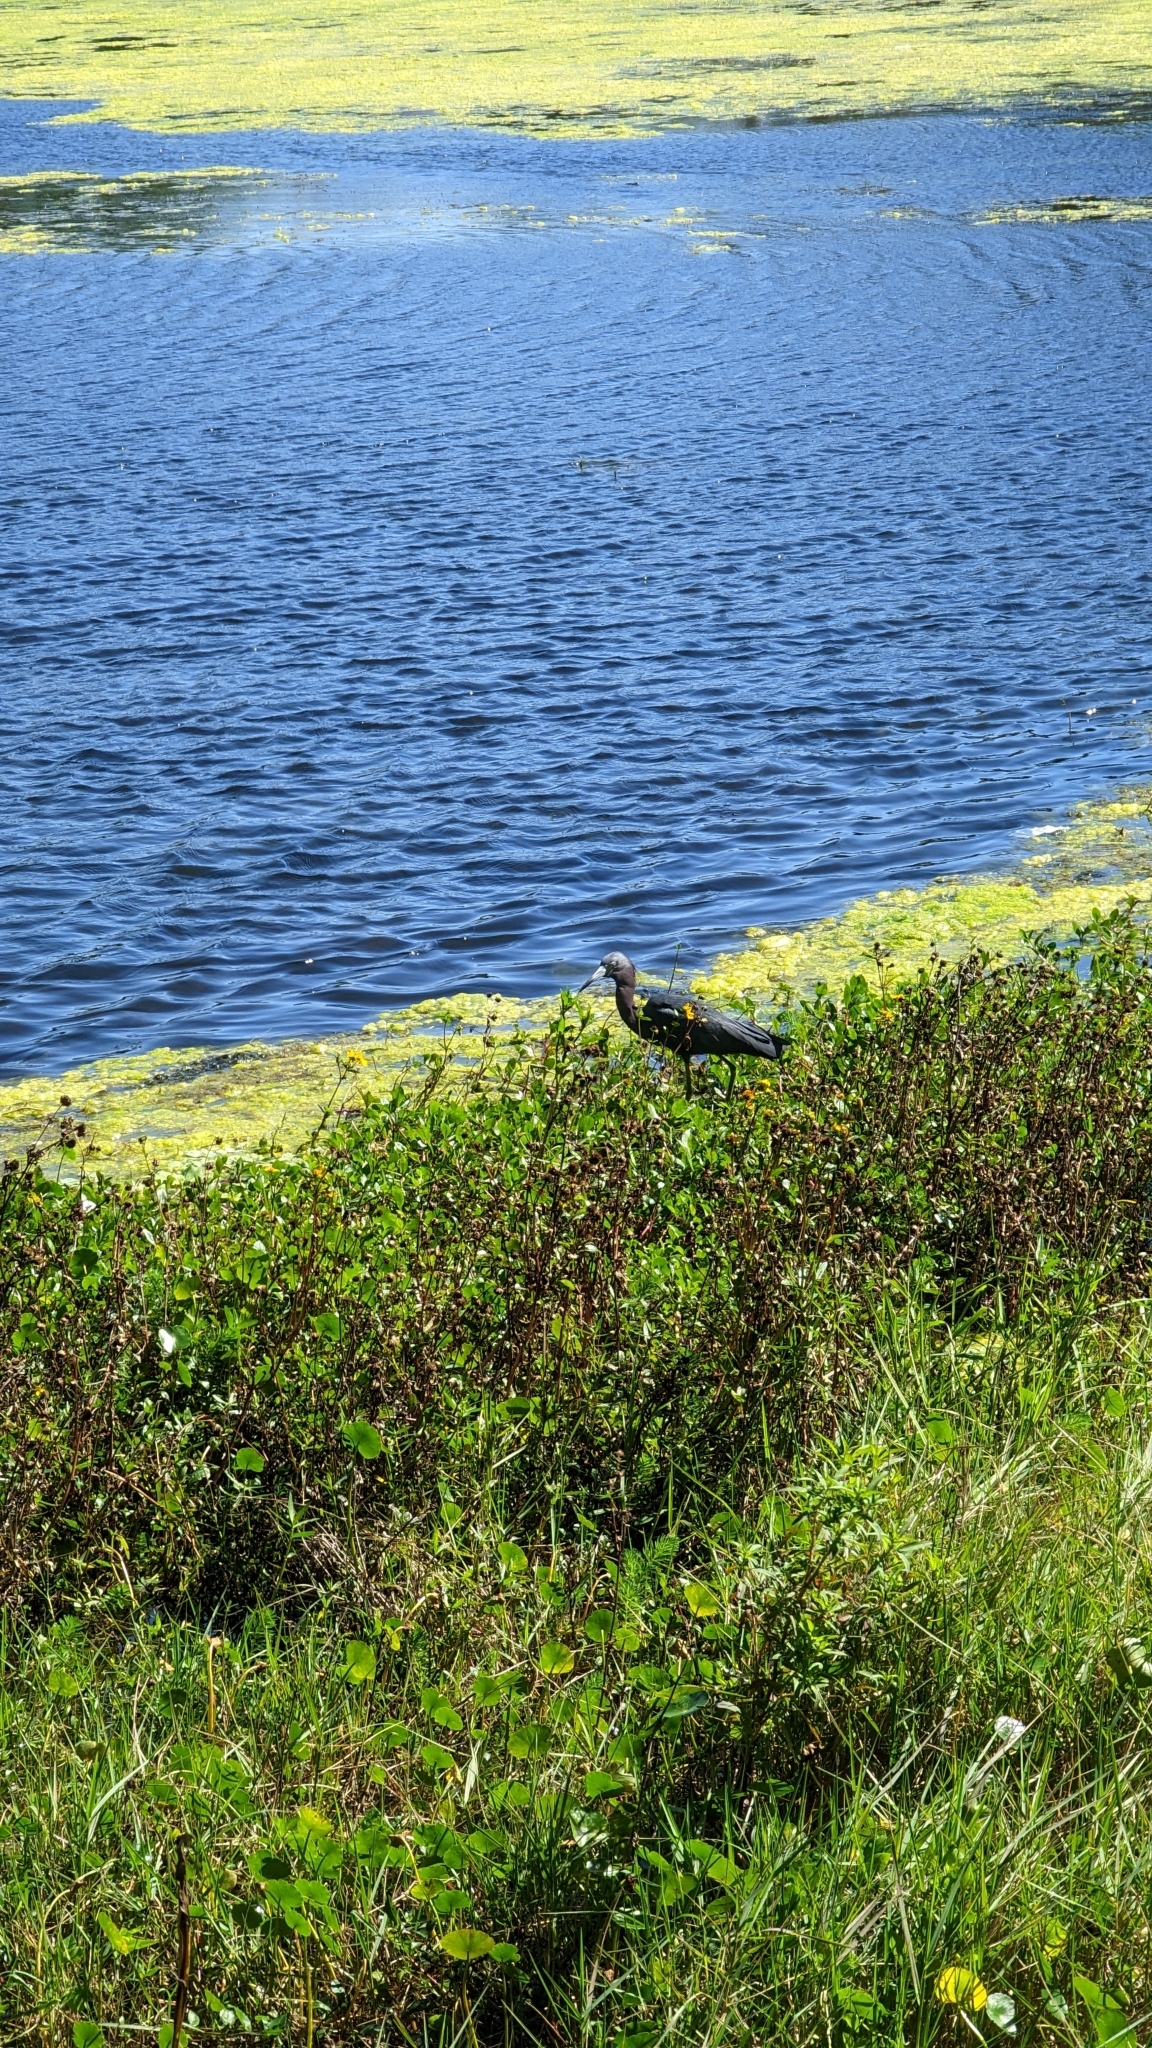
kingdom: Animalia
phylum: Chordata
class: Aves
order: Pelecaniformes
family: Ardeidae
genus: Egretta
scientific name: Egretta caerulea
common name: Little blue heron
